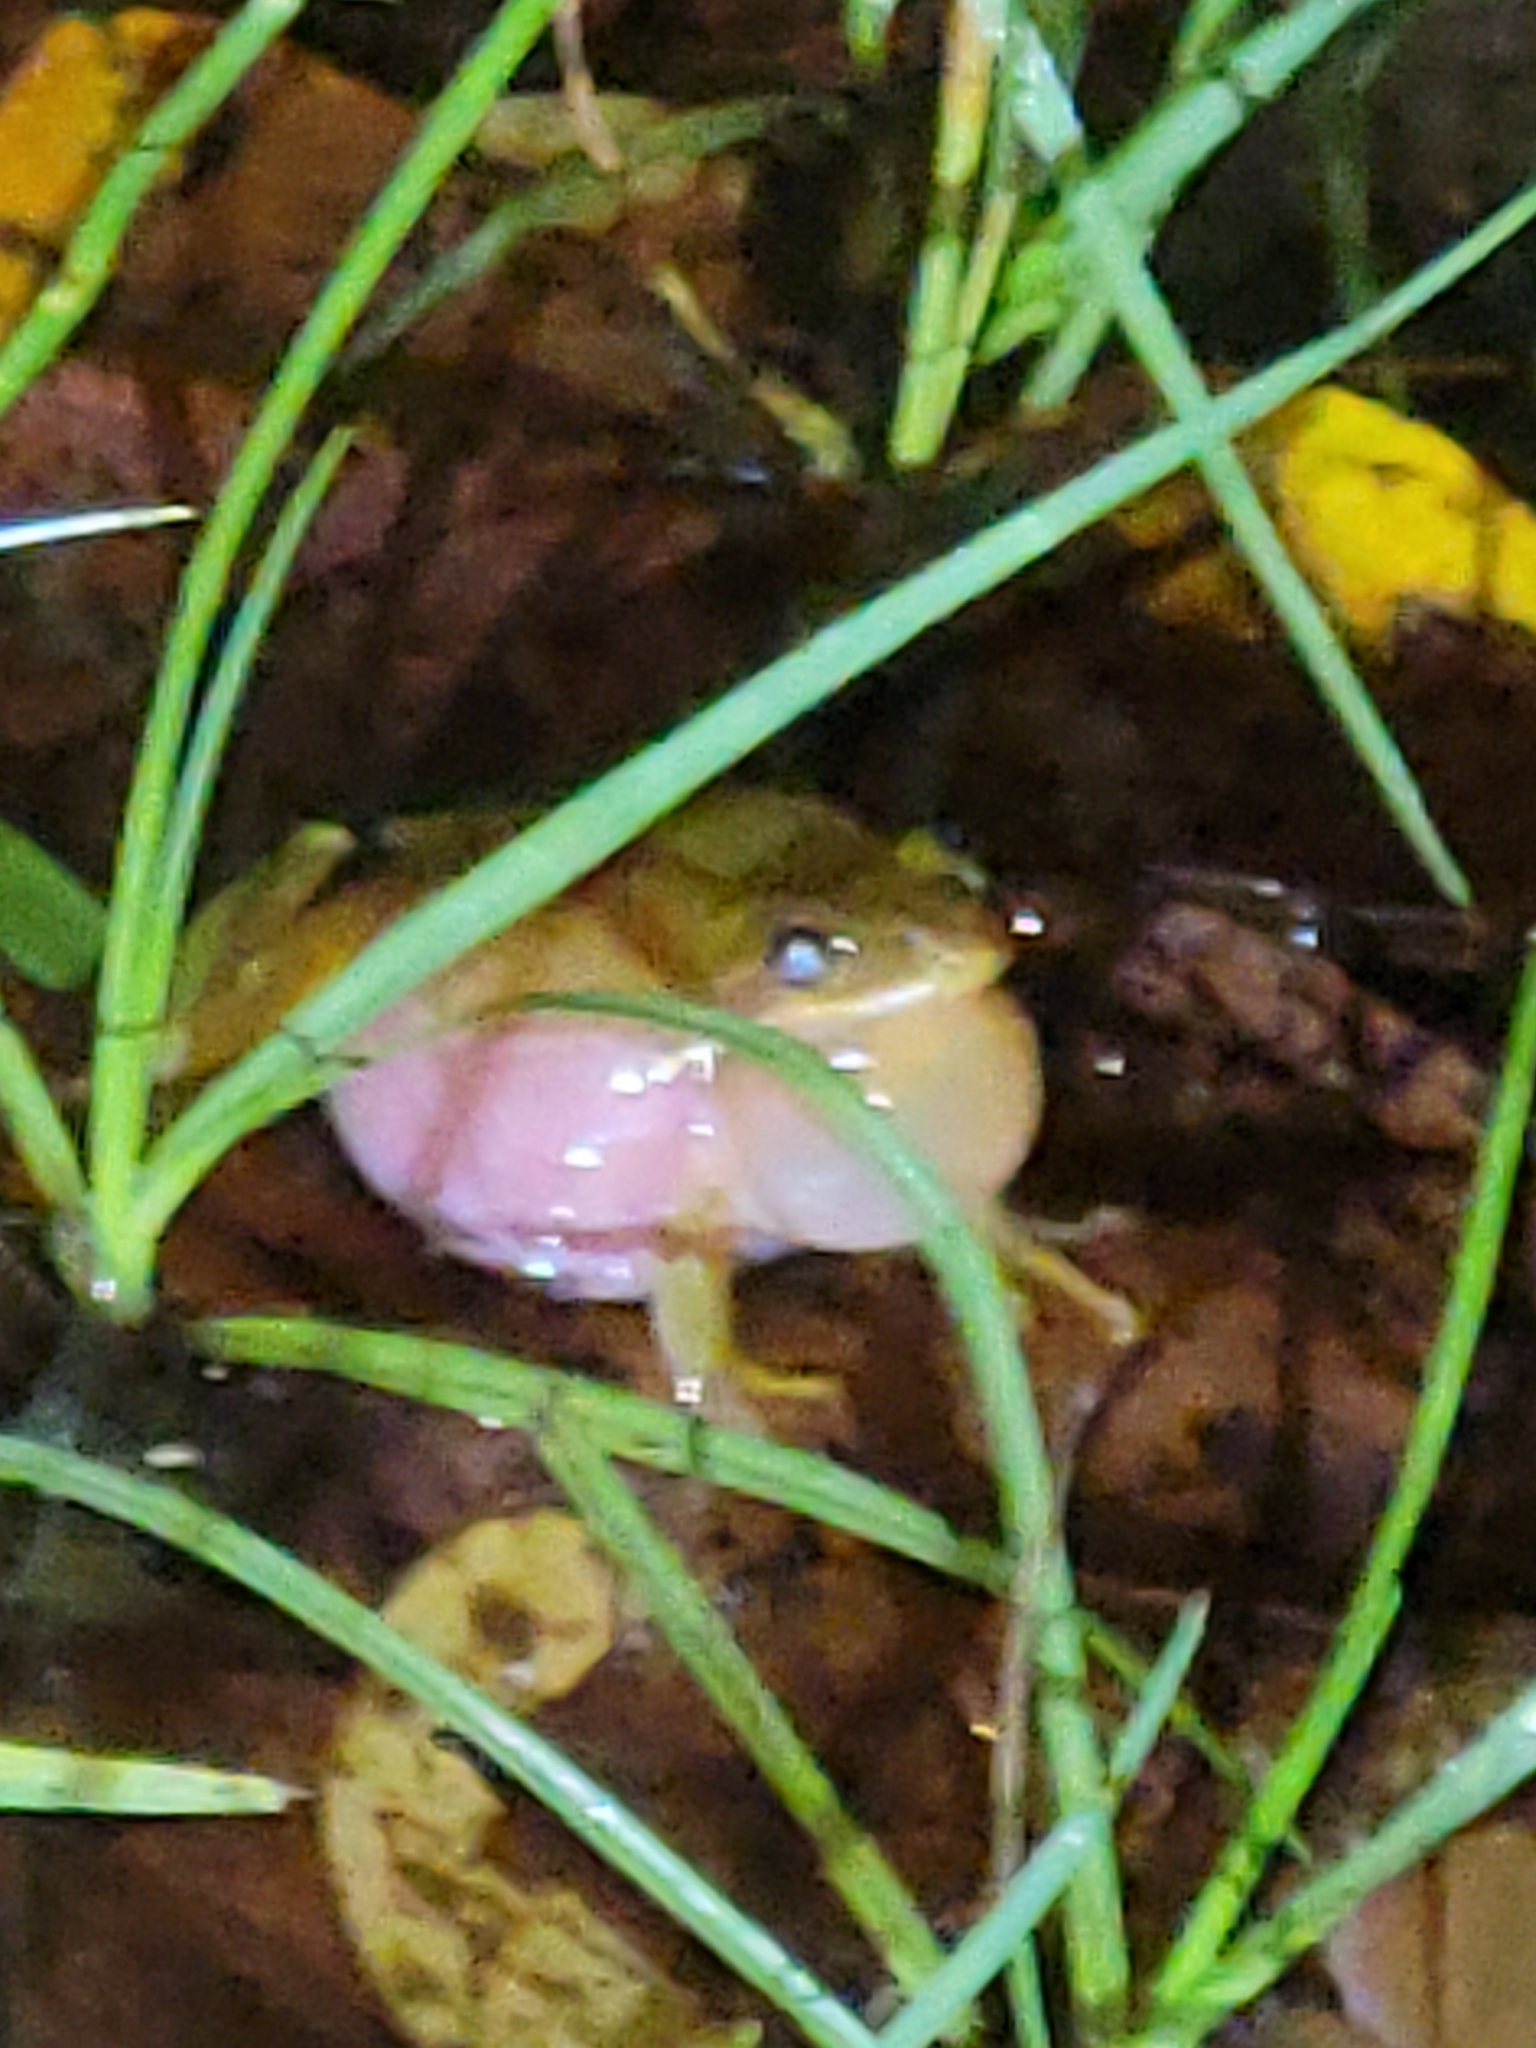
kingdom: Animalia
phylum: Chordata
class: Amphibia
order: Anura
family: Hylidae
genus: Dryophytes
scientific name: Dryophytes squirellus
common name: Squirrel treefrog
